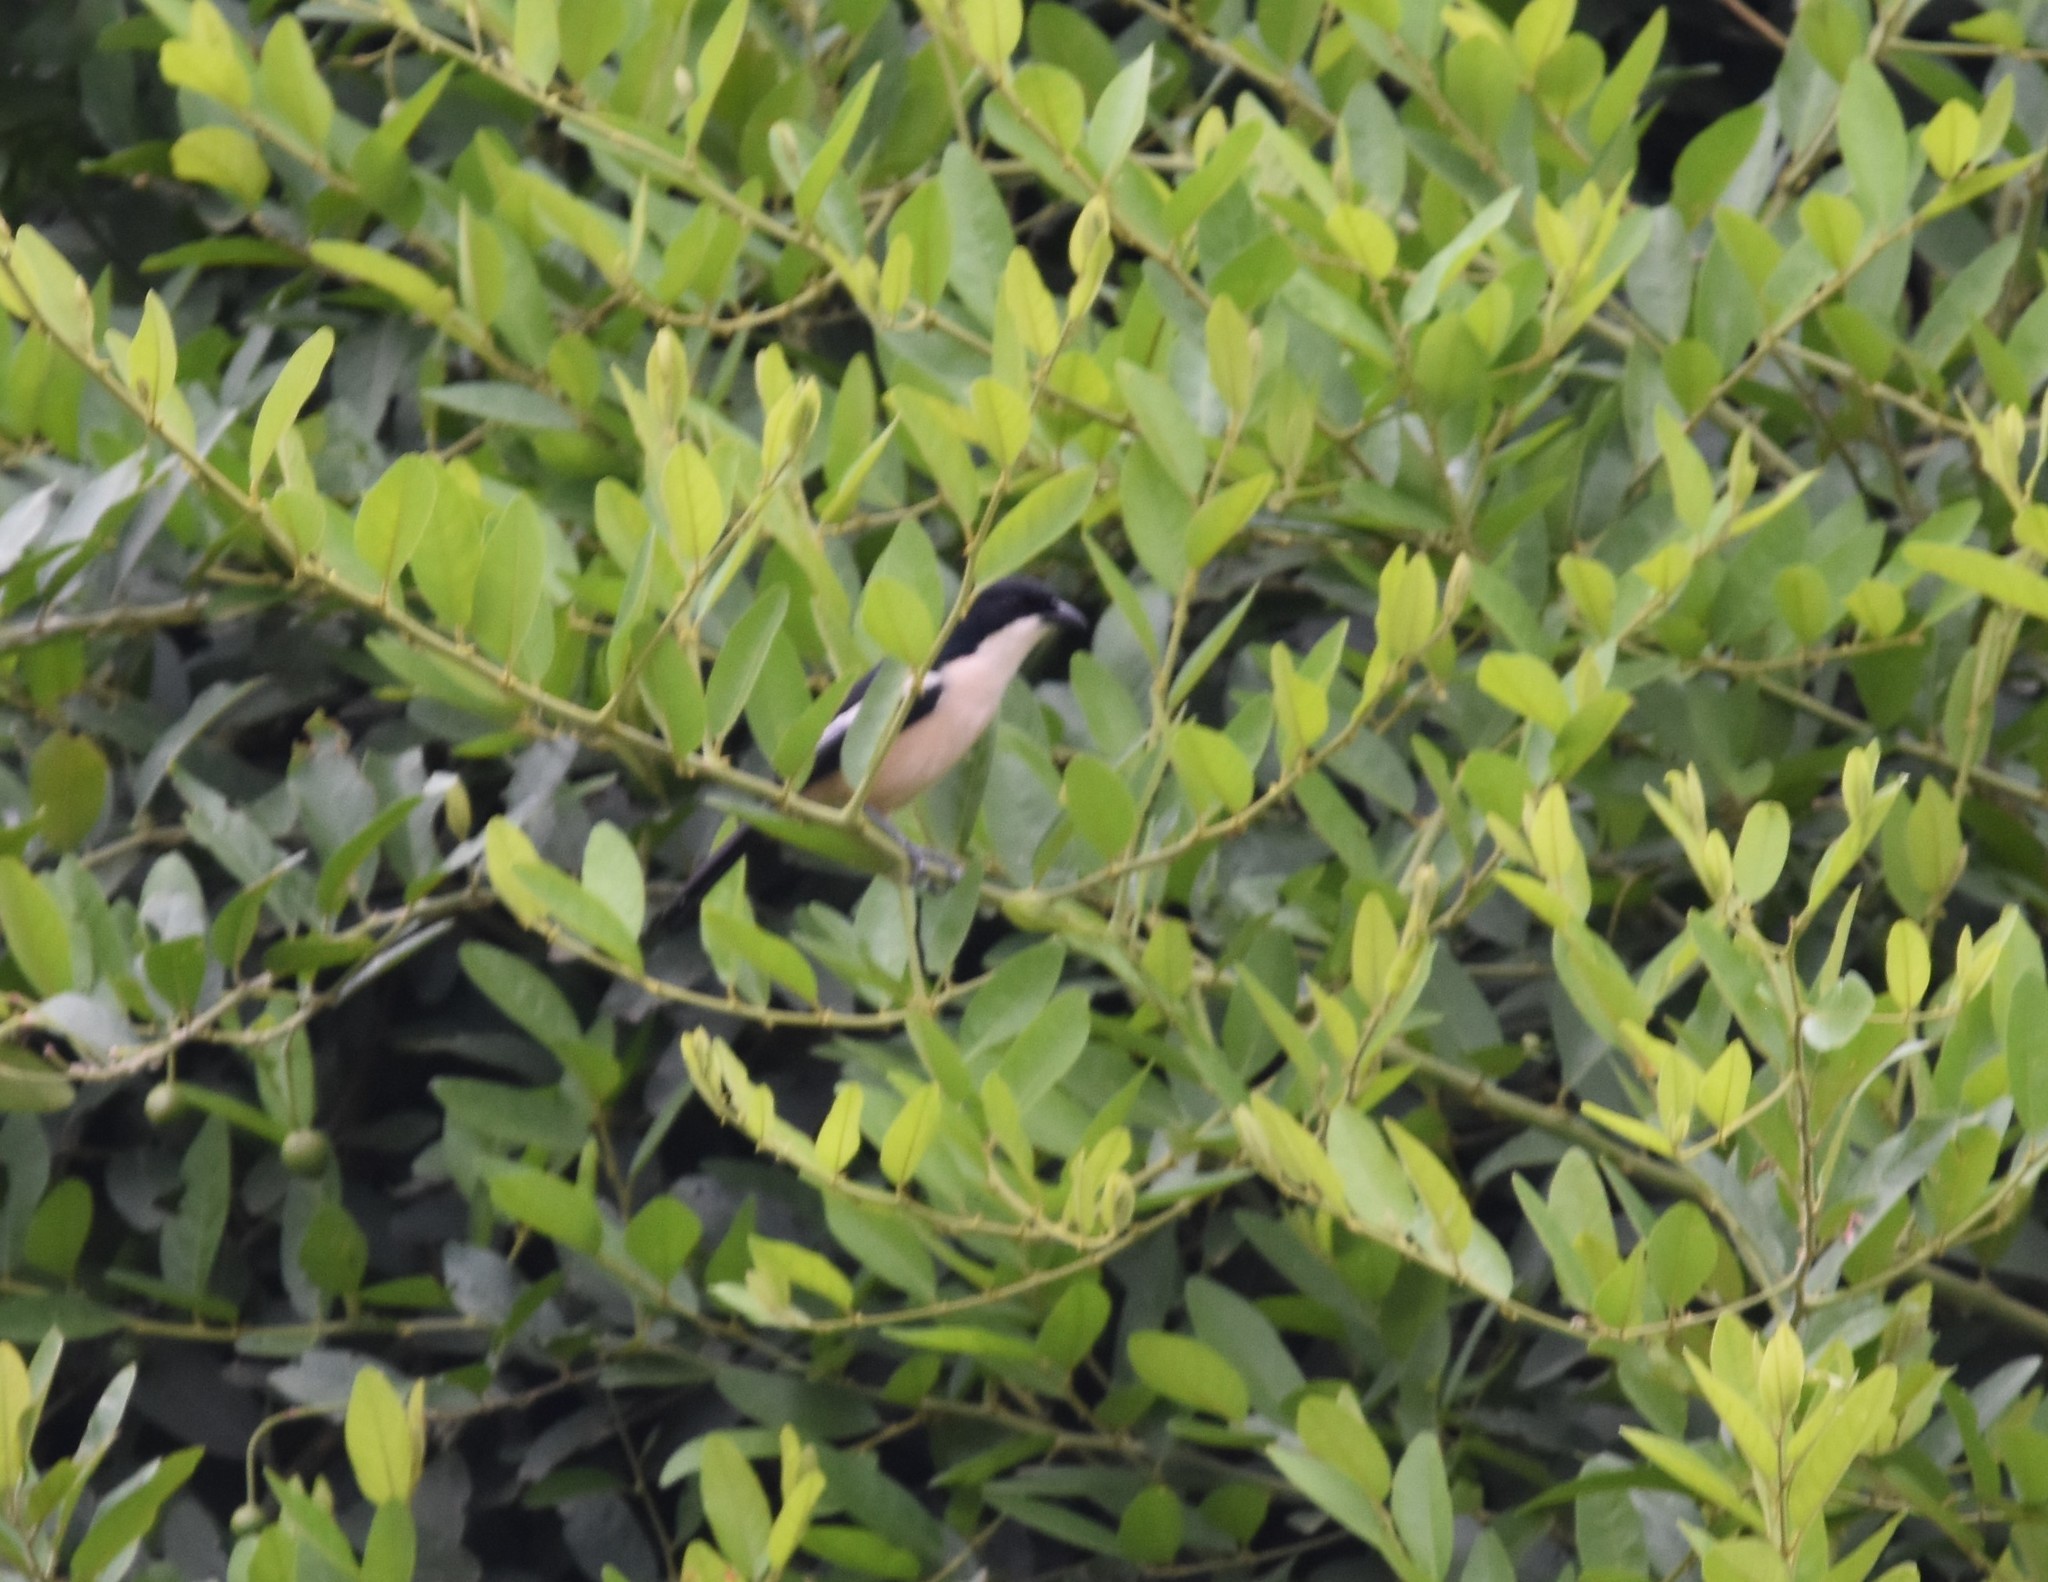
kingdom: Animalia
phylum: Chordata
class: Aves
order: Passeriformes
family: Malaconotidae
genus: Laniarius
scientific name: Laniarius major
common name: Tropical boubou
